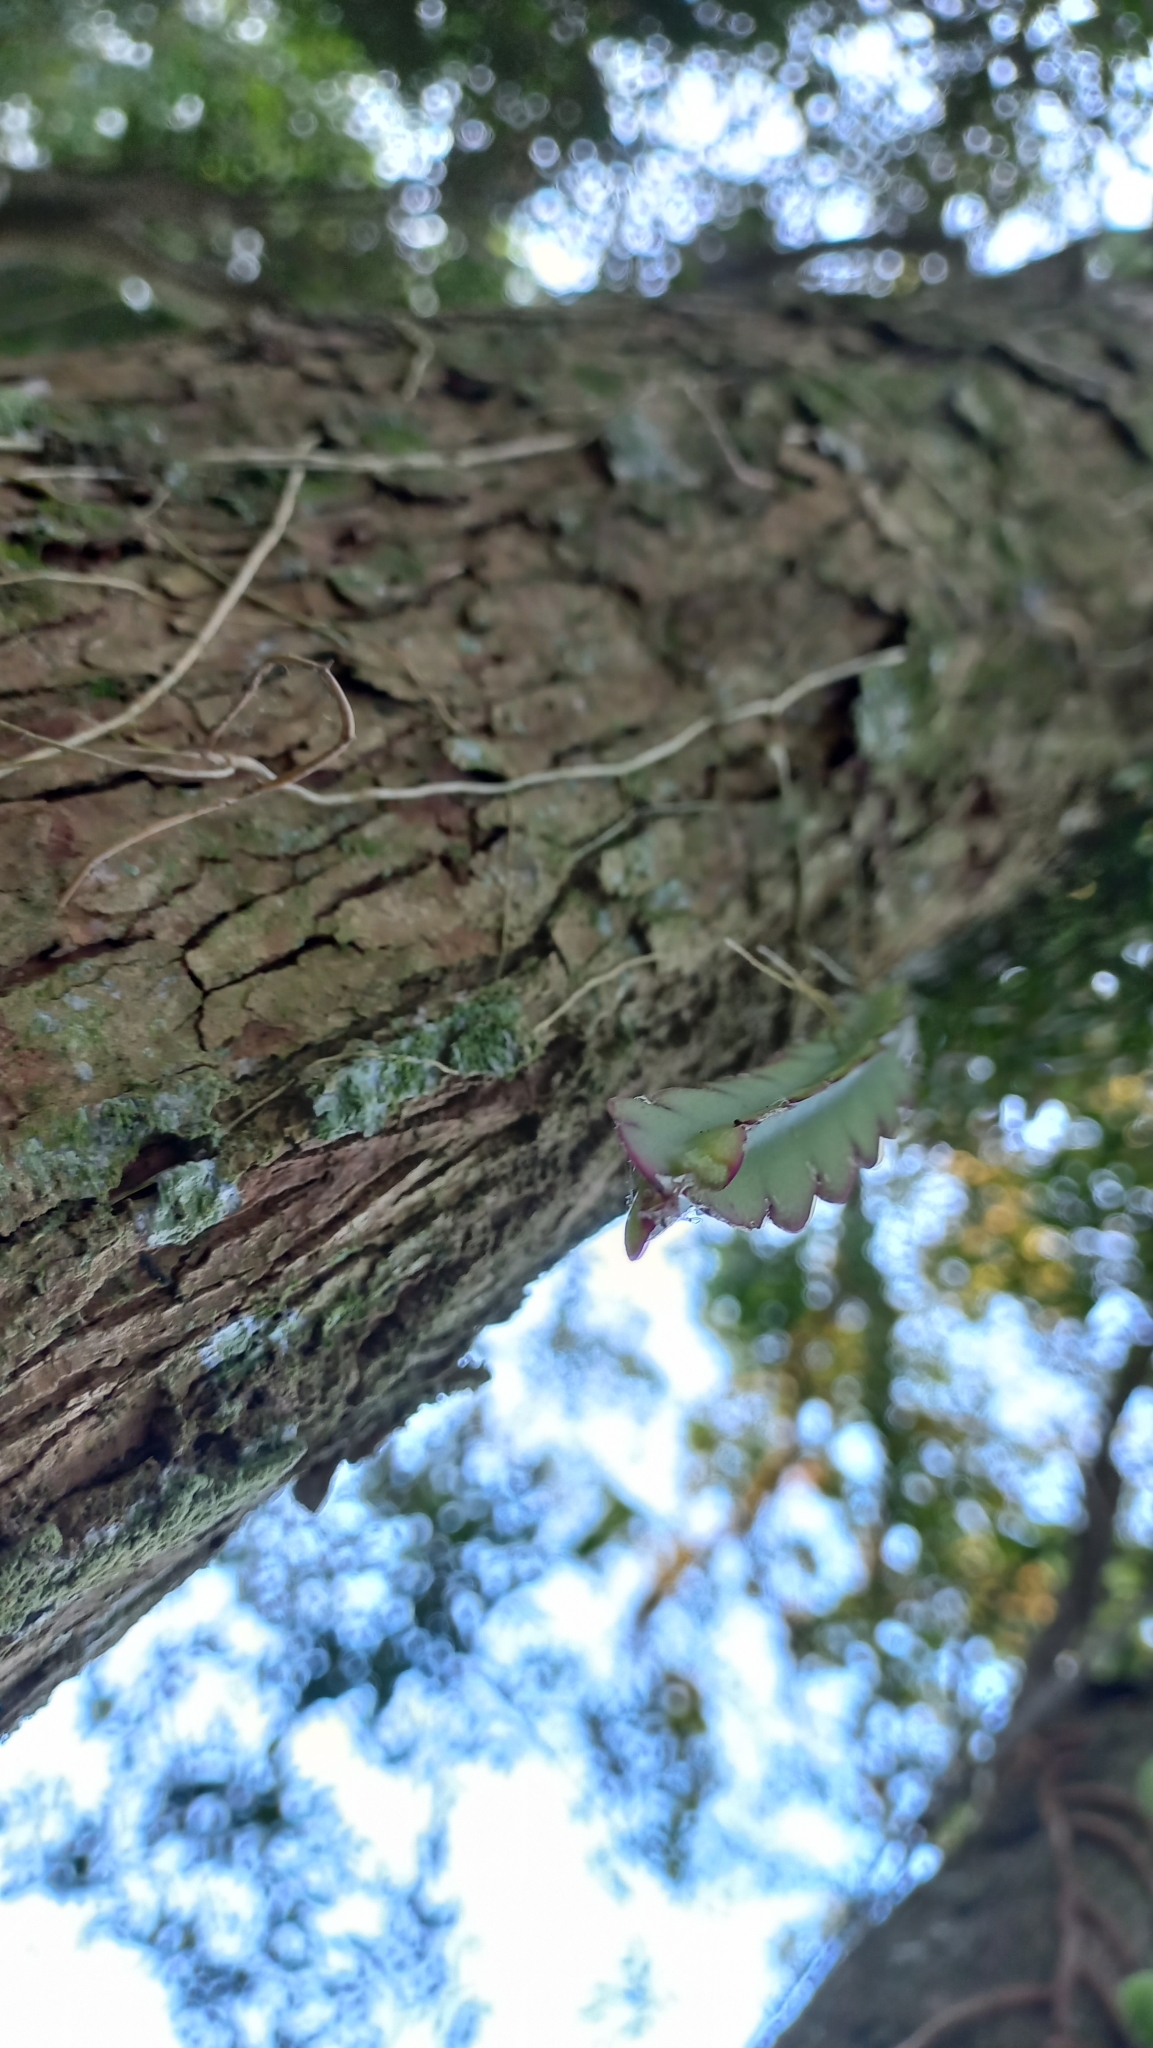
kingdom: Plantae
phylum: Tracheophyta
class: Magnoliopsida
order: Caryophyllales
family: Cactaceae
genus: Lepismium
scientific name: Lepismium cruciforme
